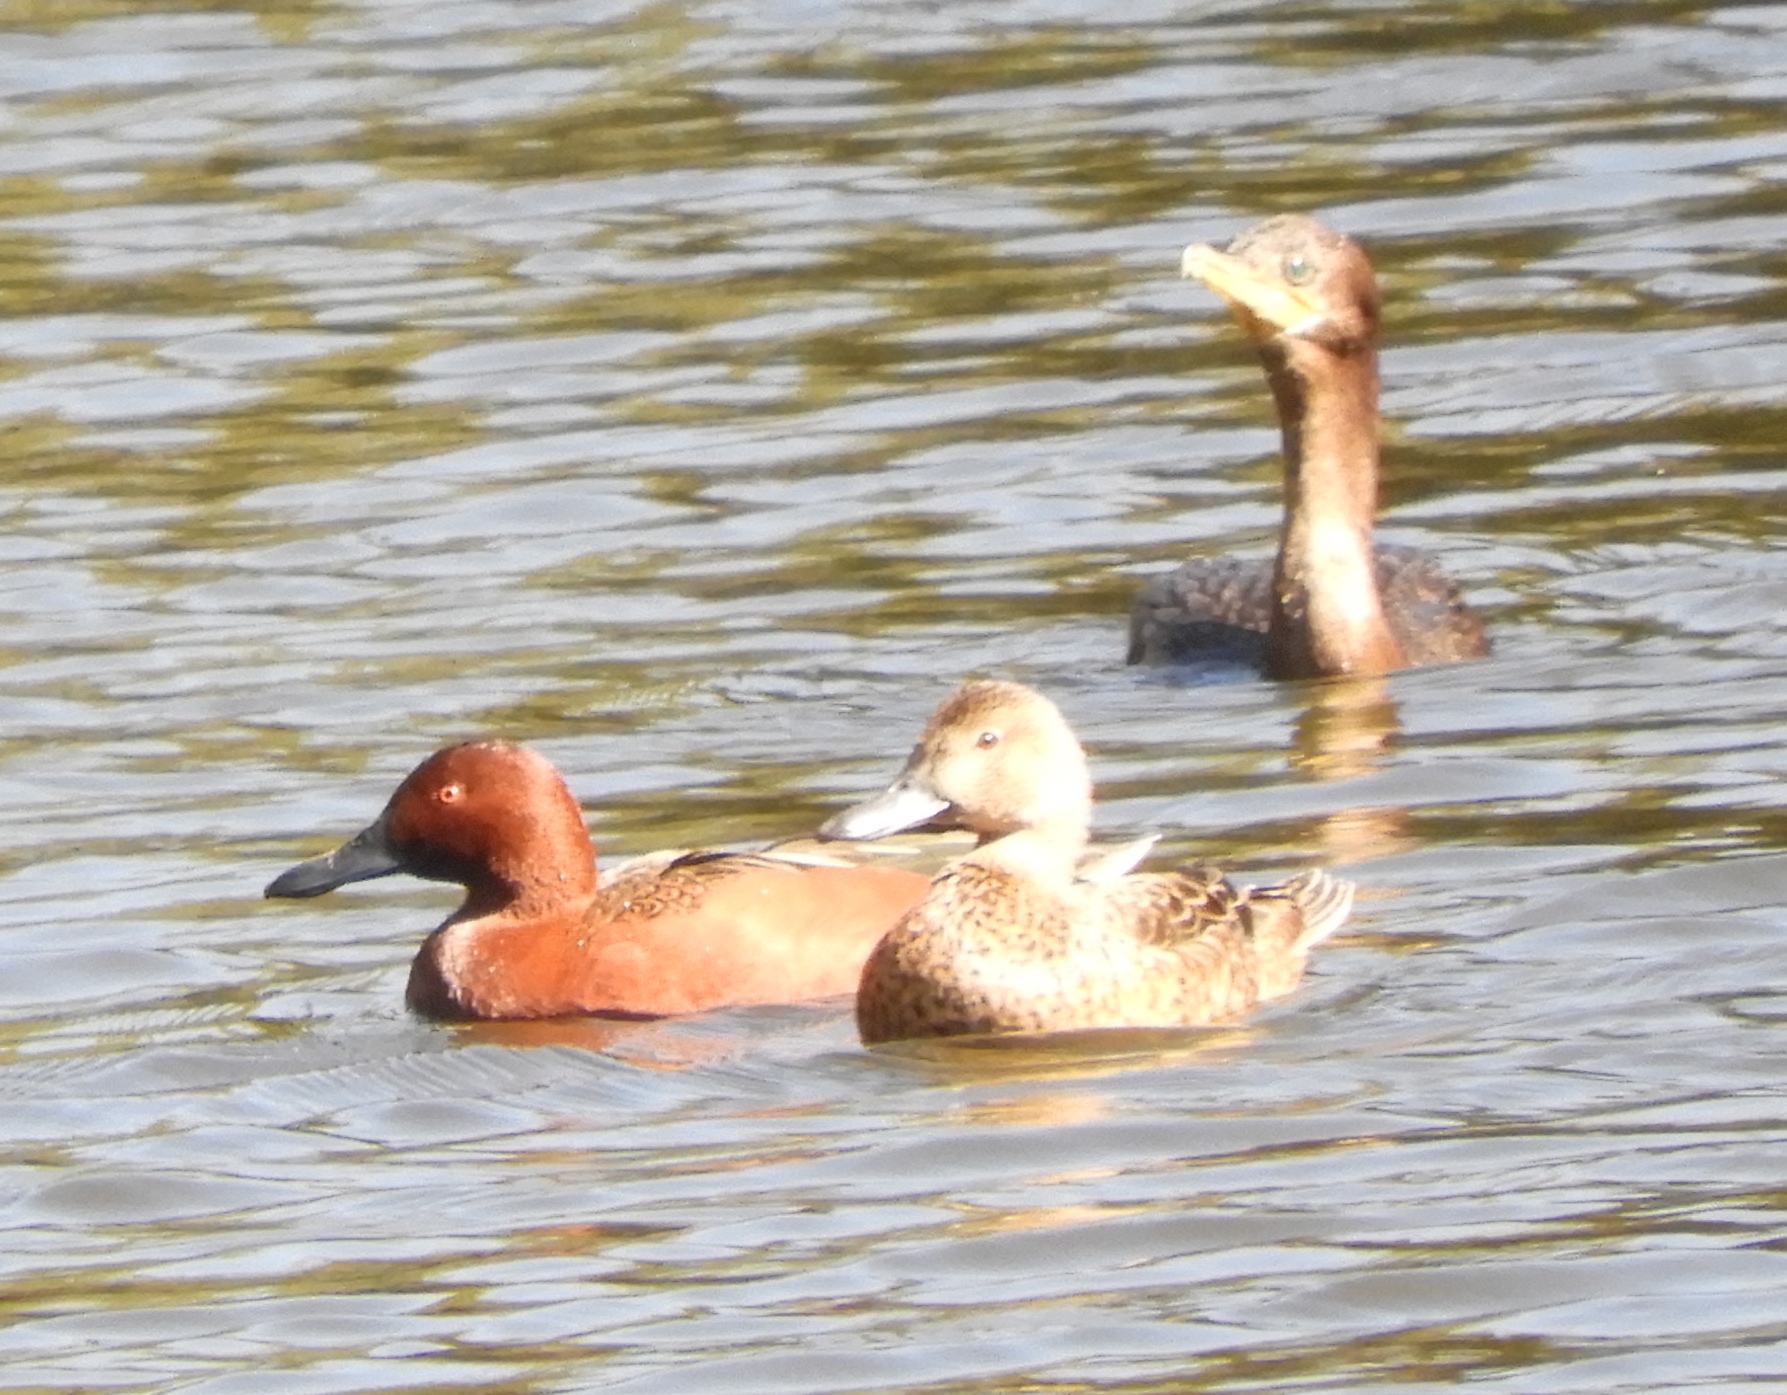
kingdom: Animalia
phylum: Chordata
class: Aves
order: Anseriformes
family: Anatidae
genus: Spatula
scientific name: Spatula cyanoptera
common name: Cinnamon teal
